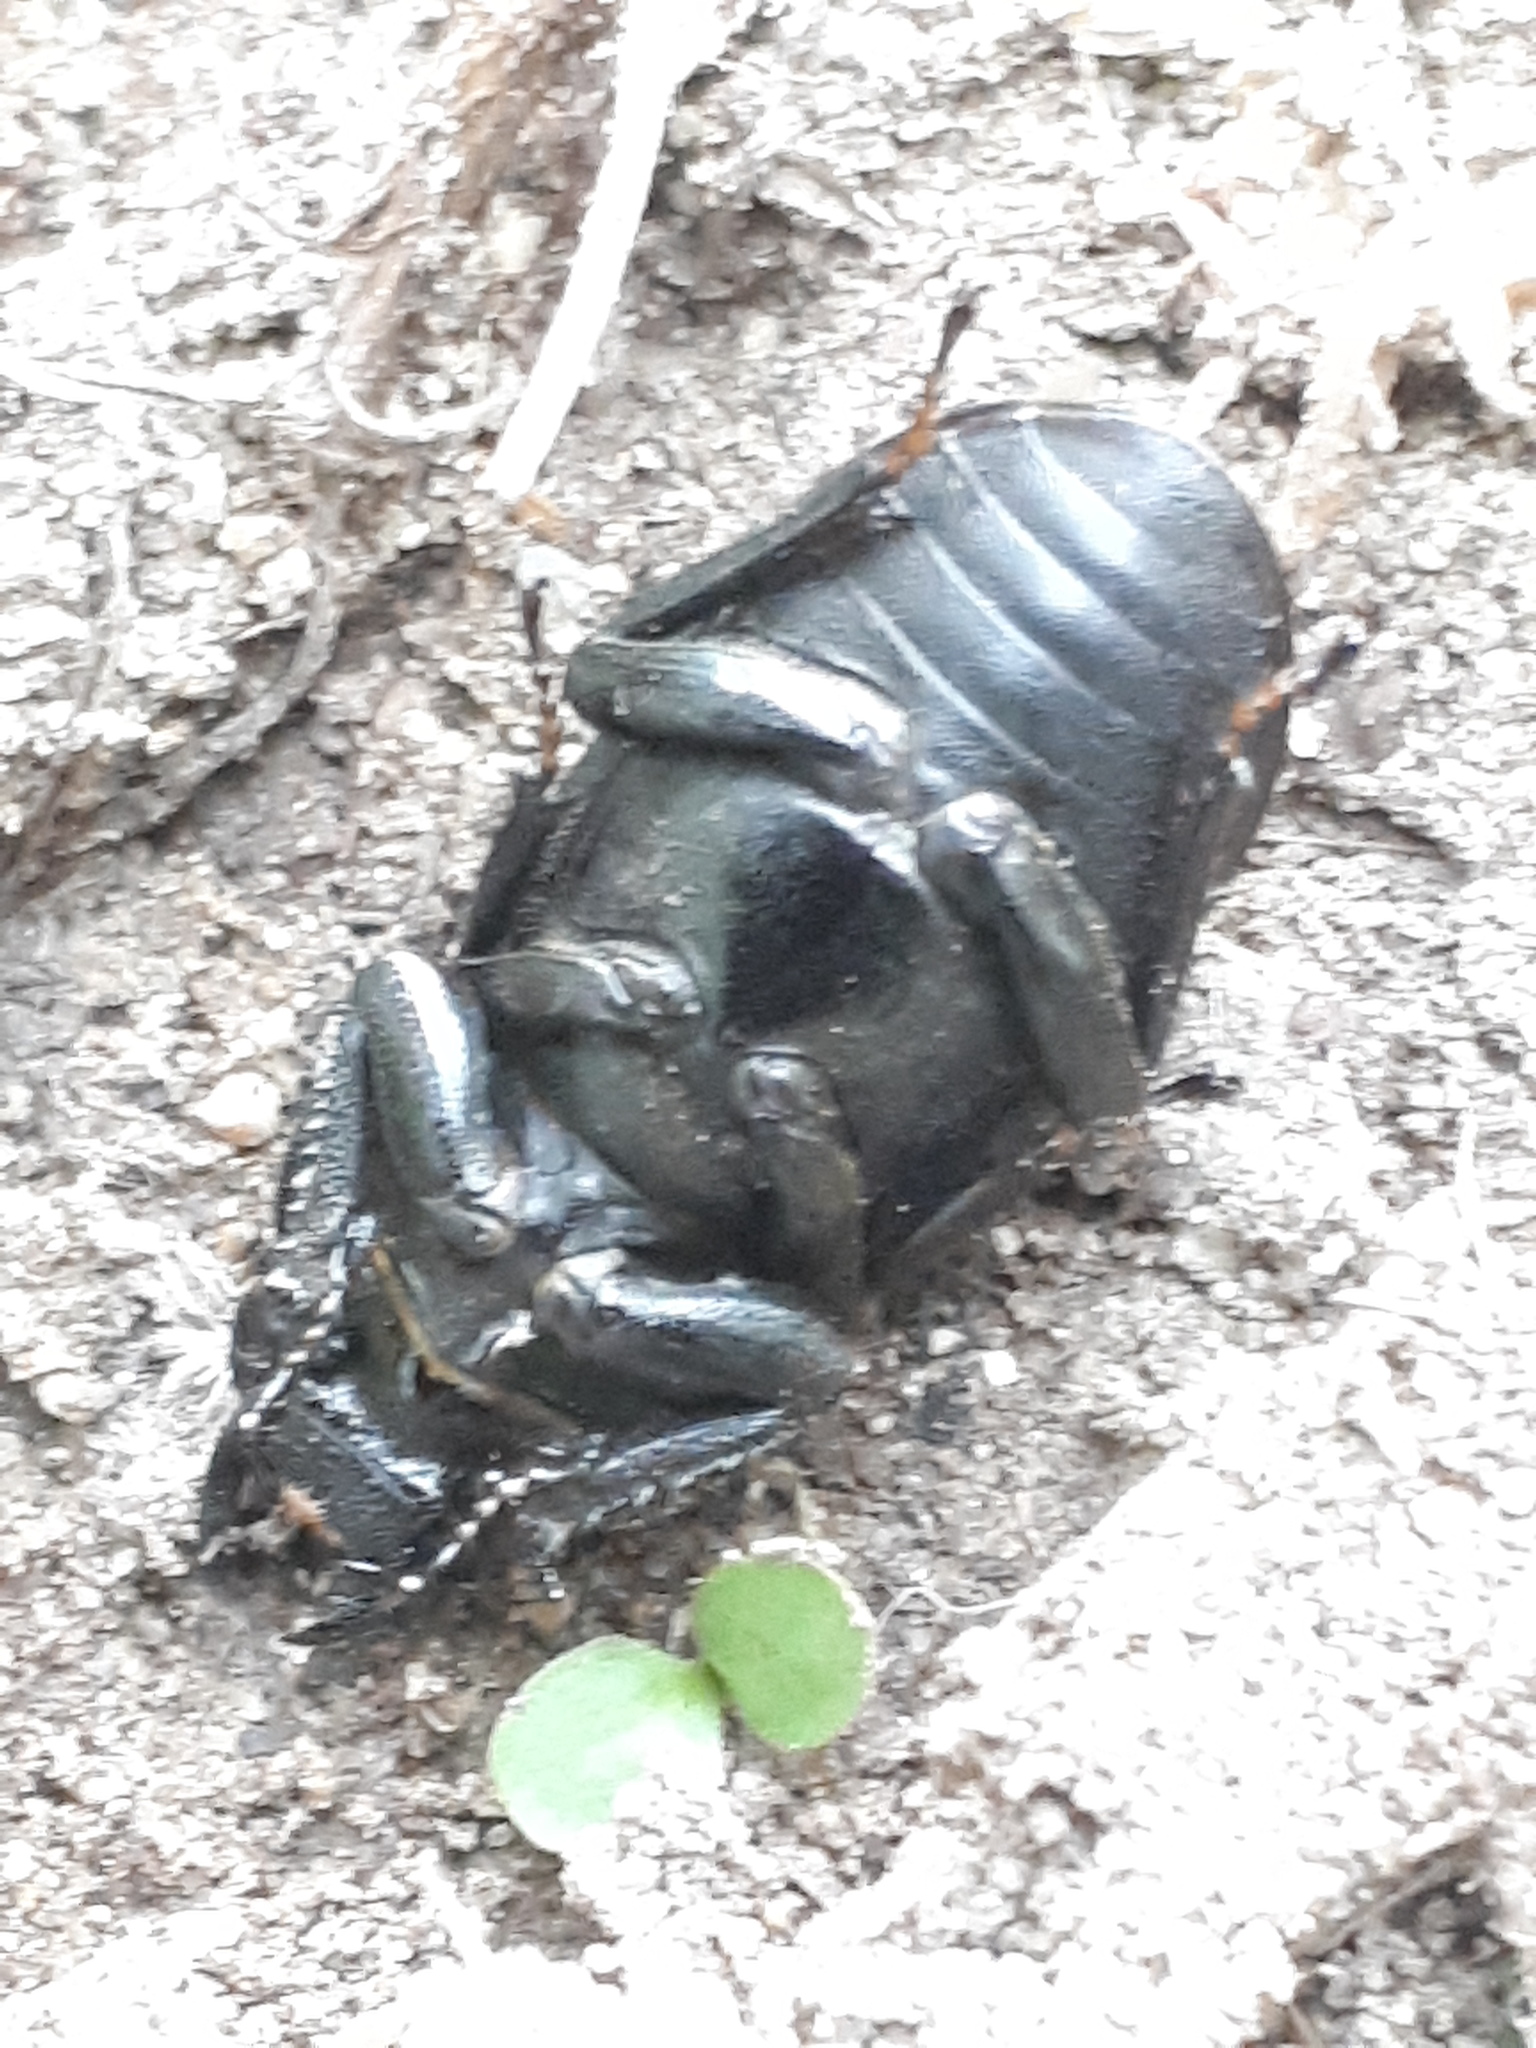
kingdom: Animalia
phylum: Arthropoda
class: Insecta
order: Coleoptera
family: Lucanidae
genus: Dorcus
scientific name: Dorcus parallelipipedus
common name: Lesser stag beetle
